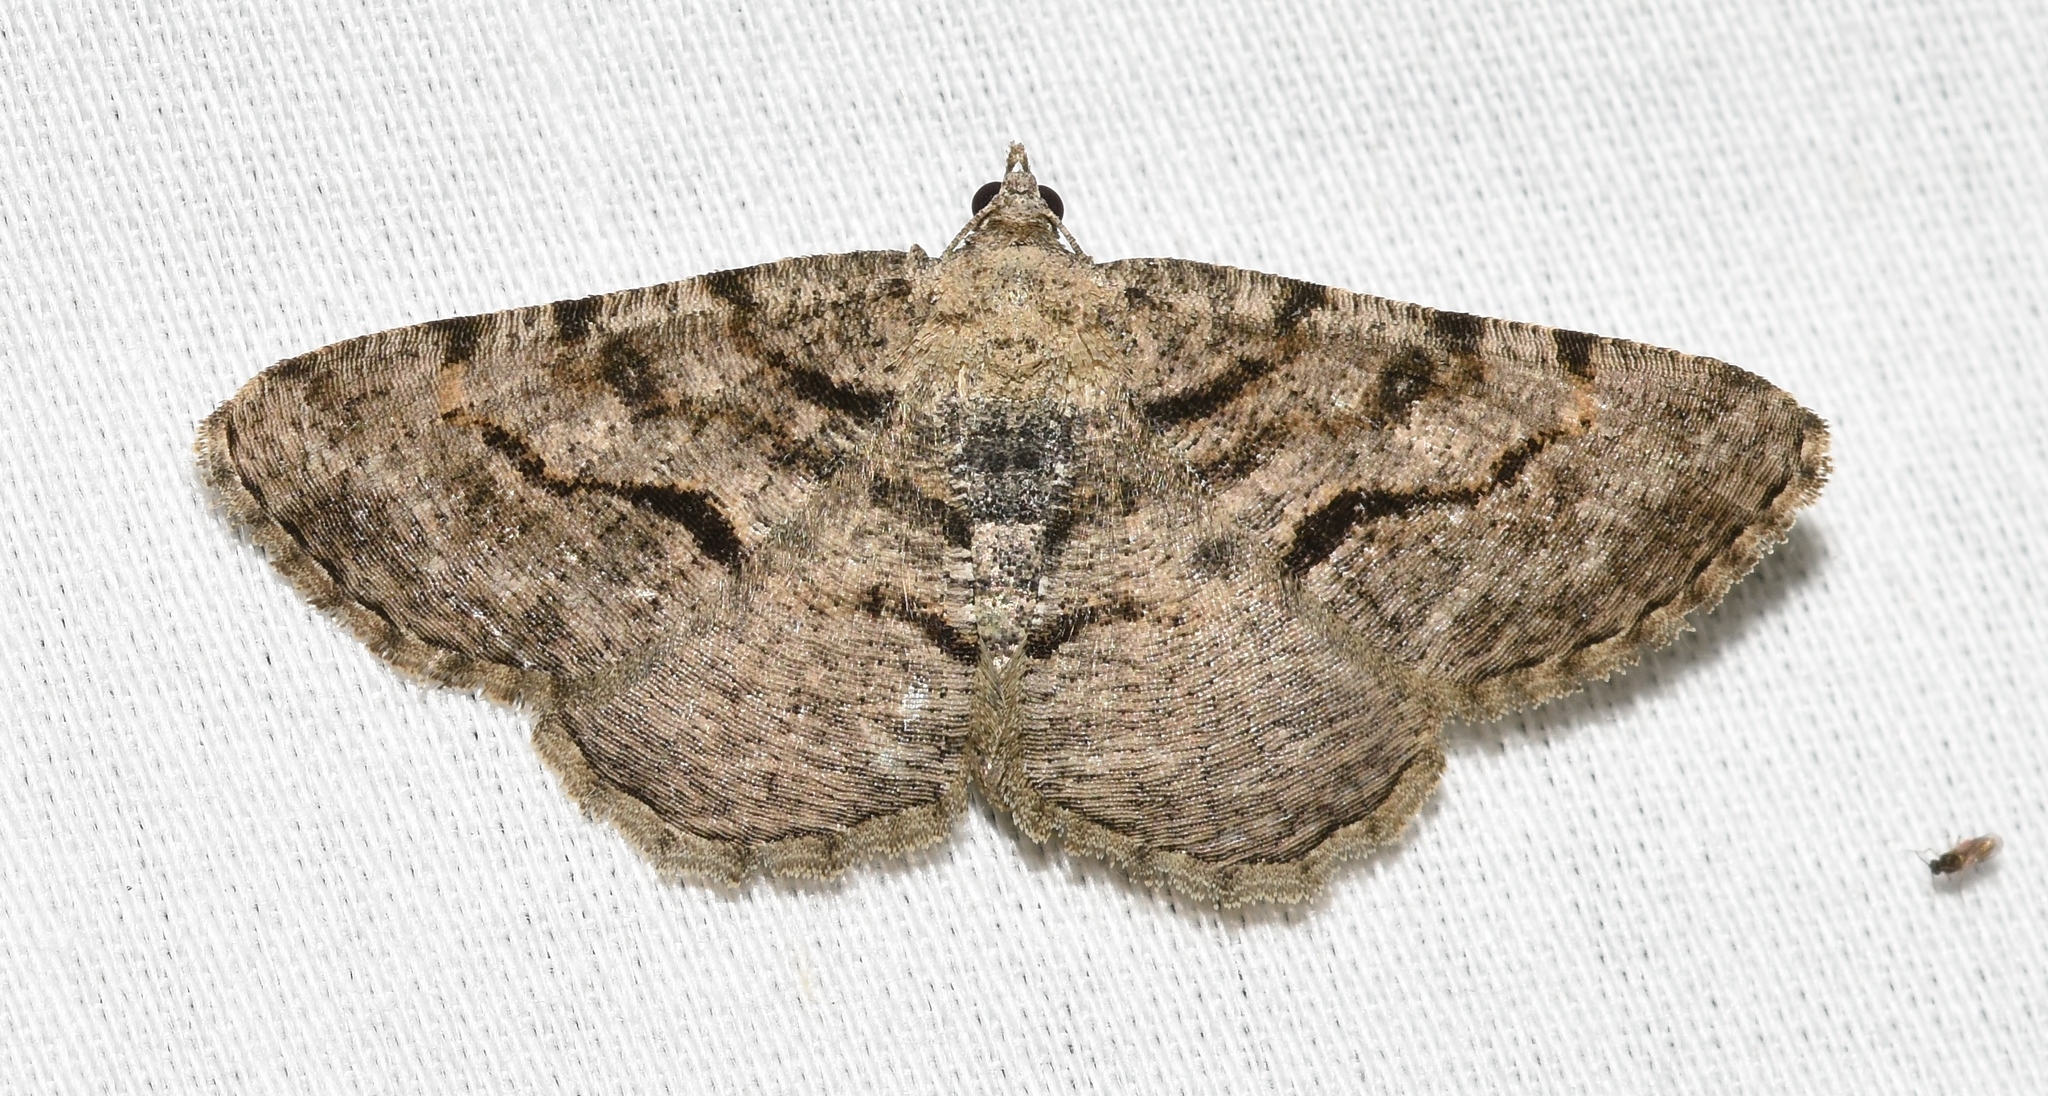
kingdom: Animalia
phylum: Arthropoda
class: Insecta
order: Lepidoptera
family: Geometridae
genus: Digrammia
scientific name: Digrammia gnophosaria
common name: Hollow-spotted angle
